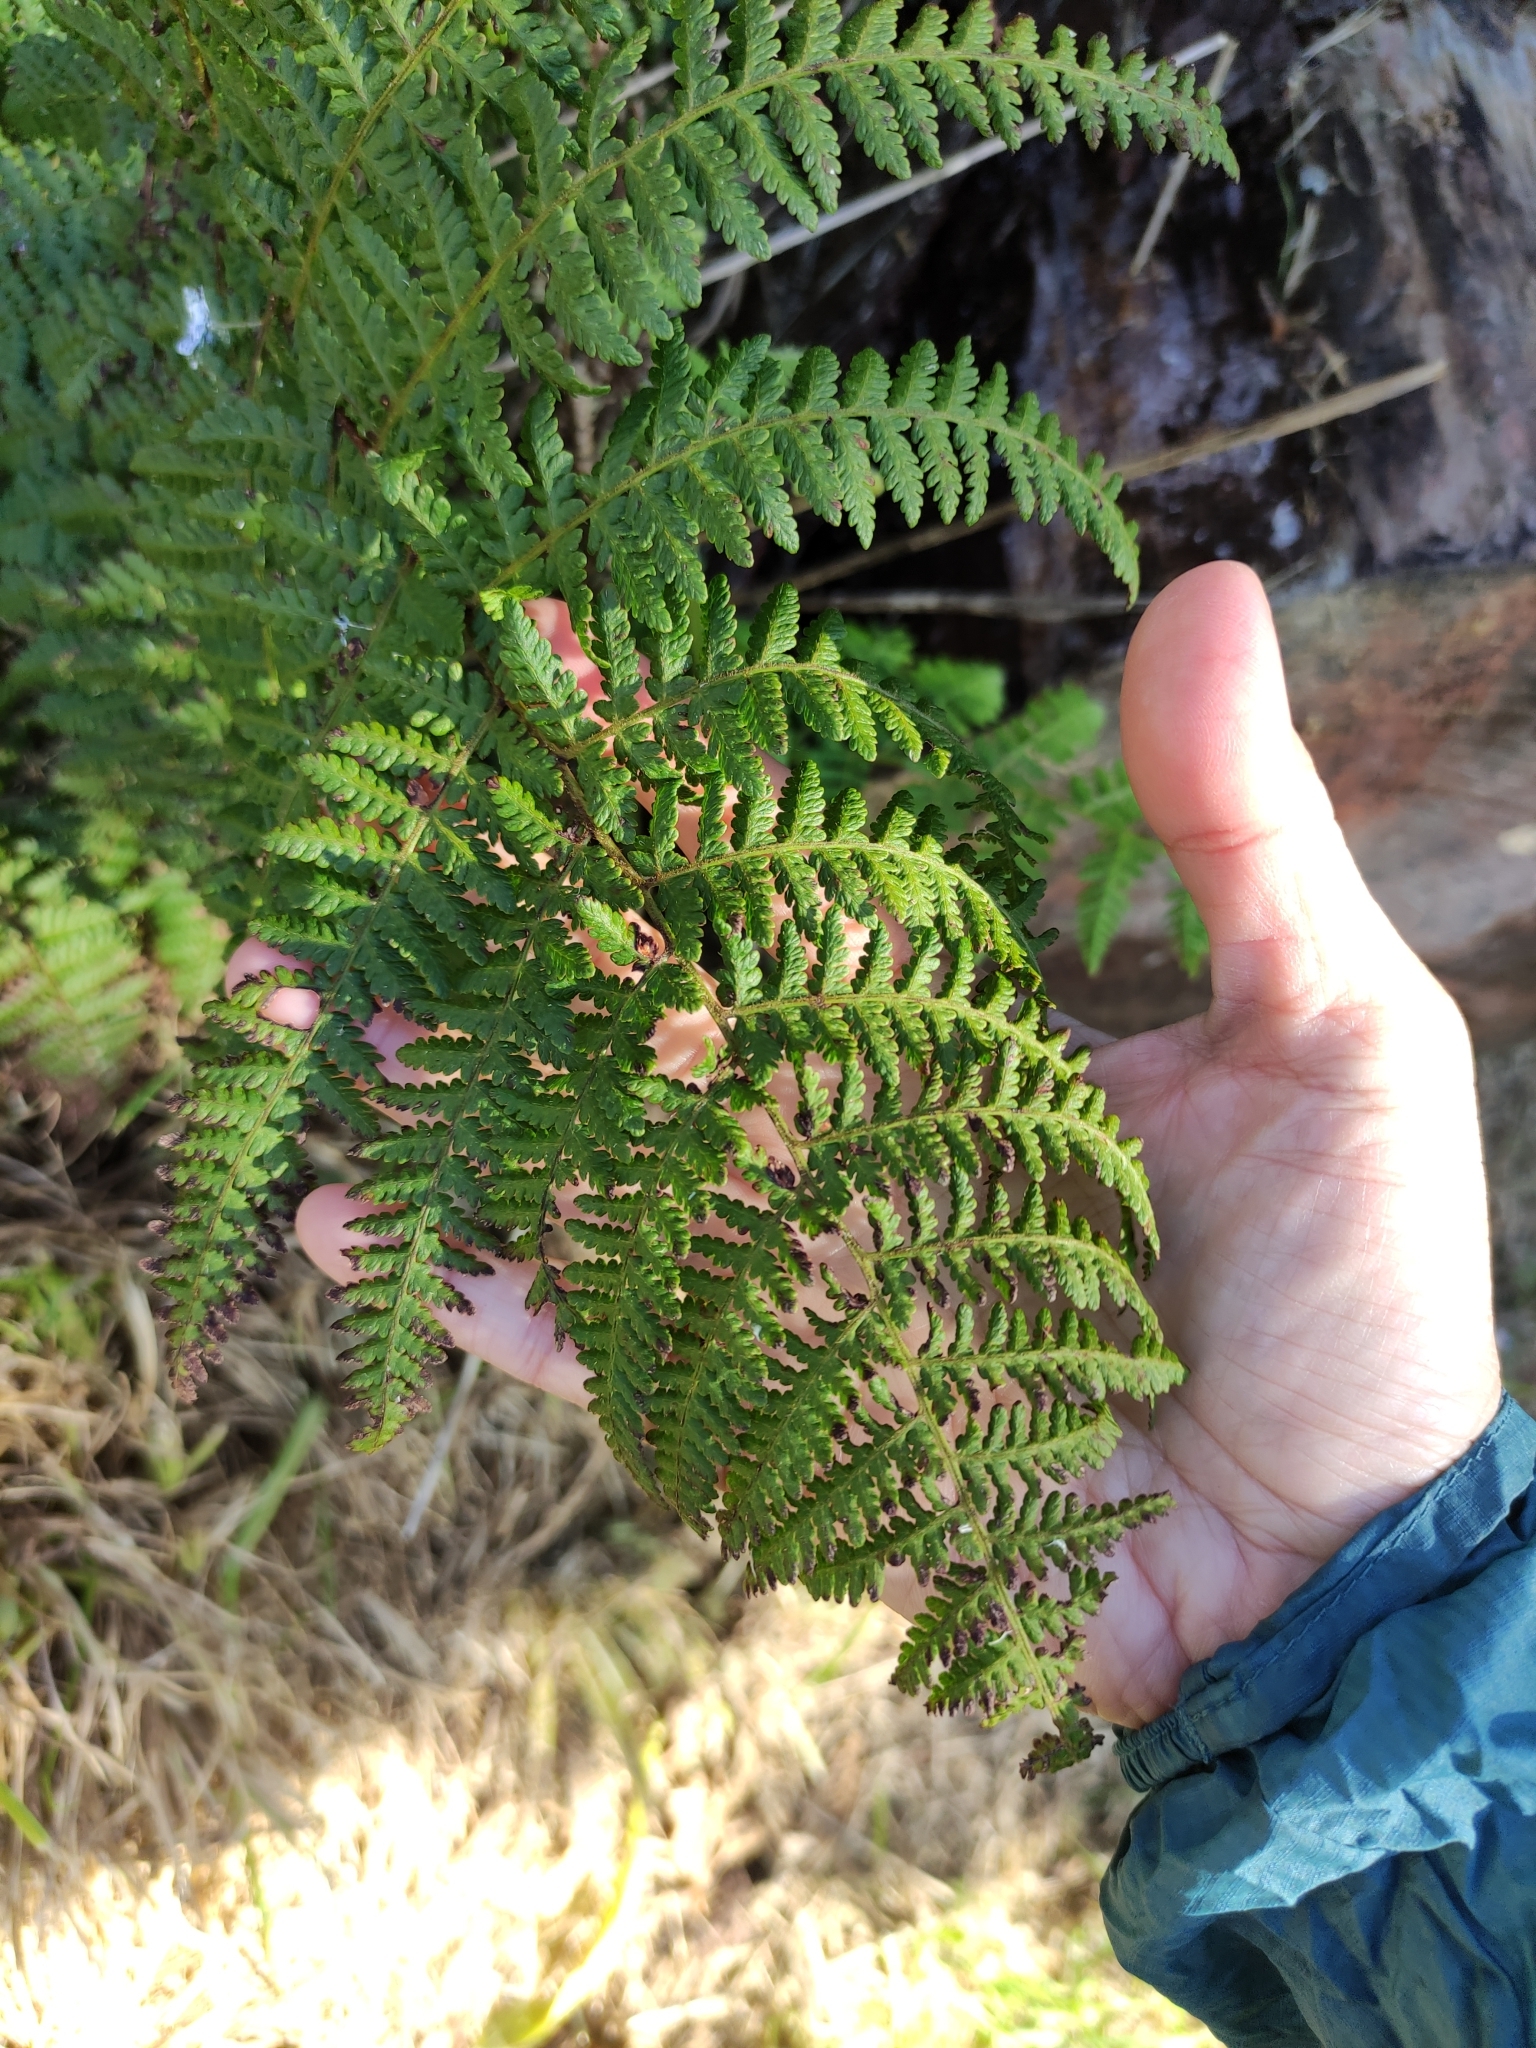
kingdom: Plantae
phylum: Tracheophyta
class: Polypodiopsida
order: Polypodiales
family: Dennstaedtiaceae
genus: Hypolepis
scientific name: Hypolepis ambigua
